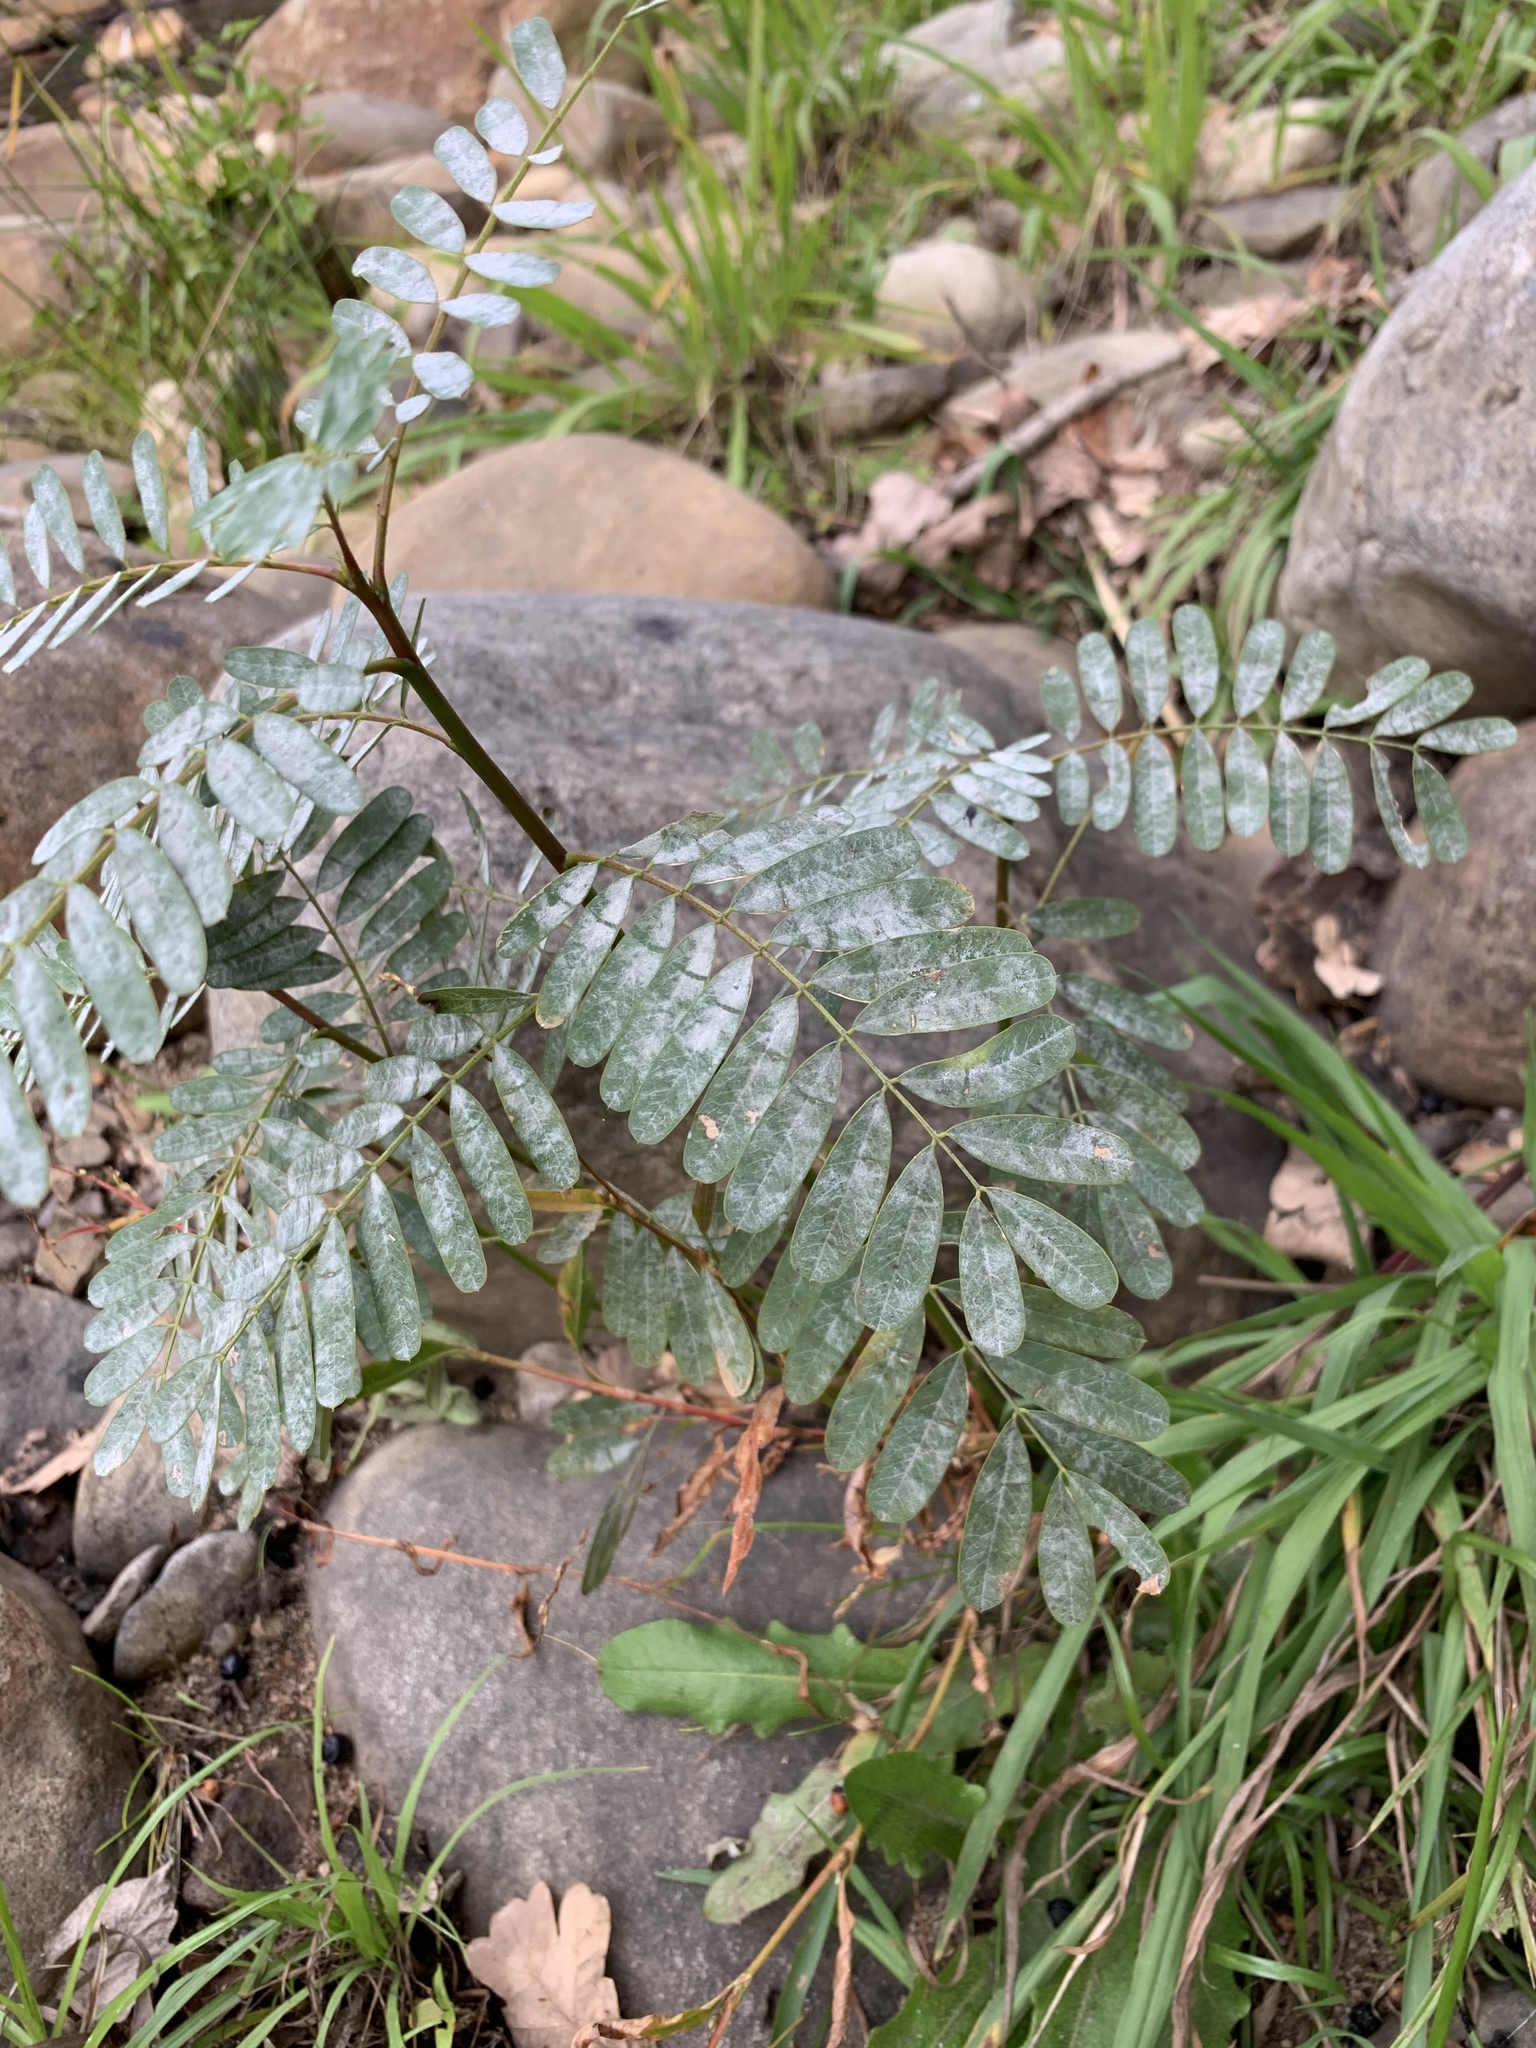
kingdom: Plantae
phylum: Tracheophyta
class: Magnoliopsida
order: Fabales
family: Fabaceae
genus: Sesbania
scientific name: Sesbania punicea
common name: Rattlebox
